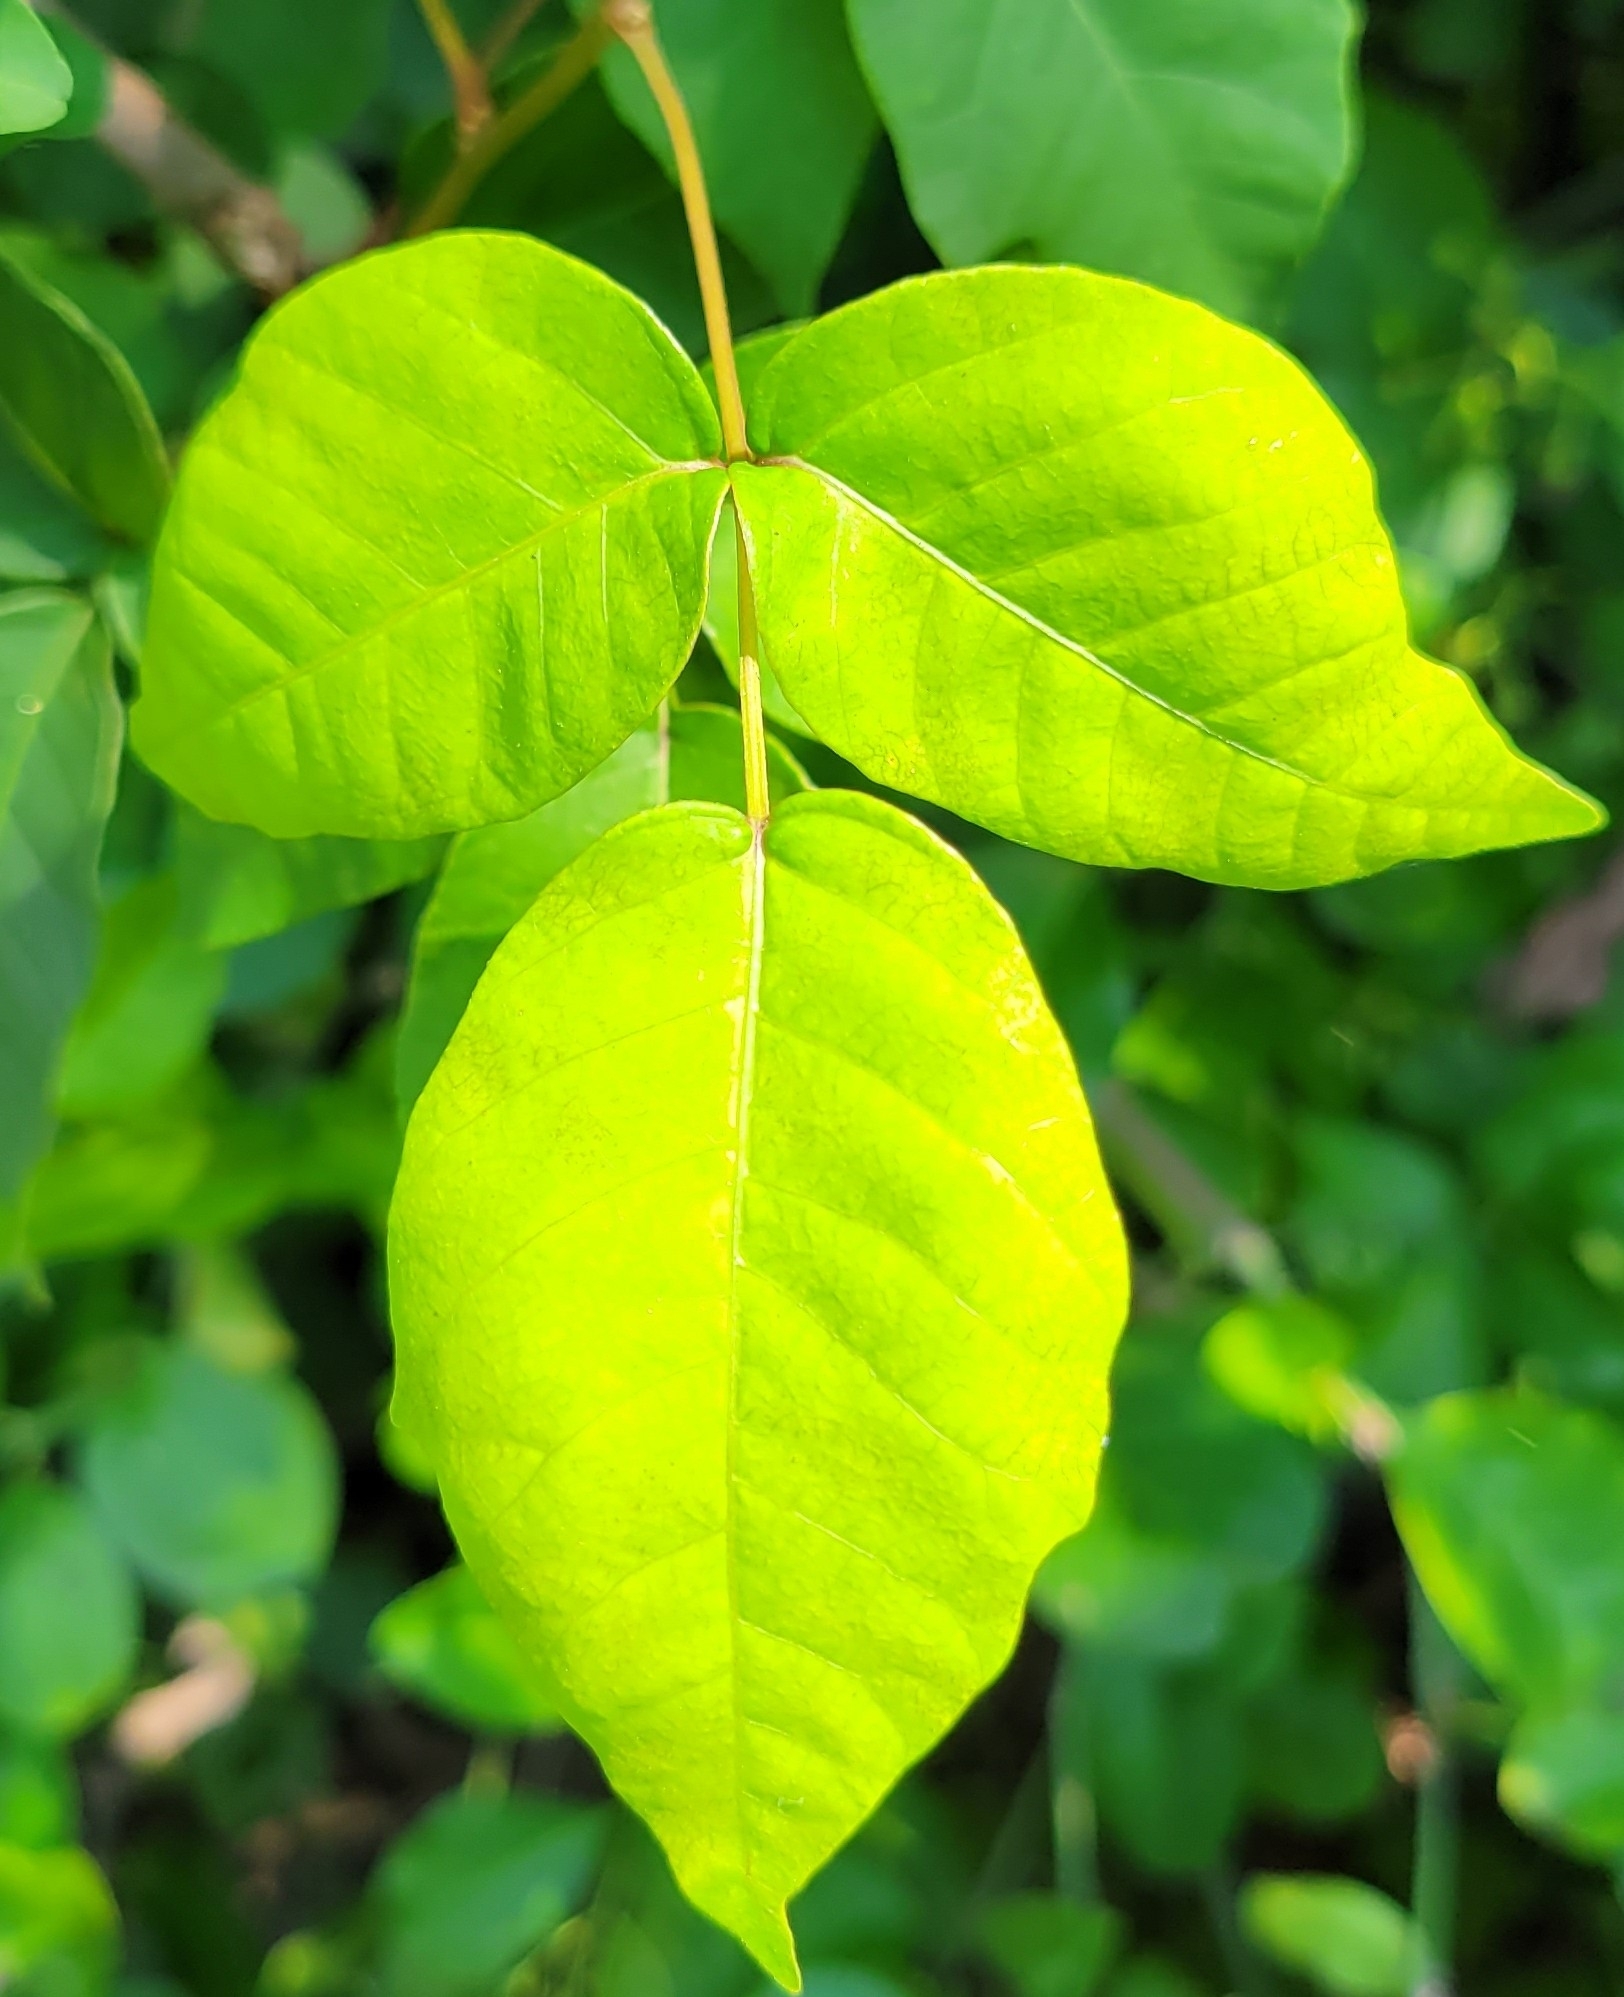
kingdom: Plantae
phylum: Tracheophyta
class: Magnoliopsida
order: Sapindales
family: Anacardiaceae
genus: Toxicodendron
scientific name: Toxicodendron radicans
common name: Poison ivy
